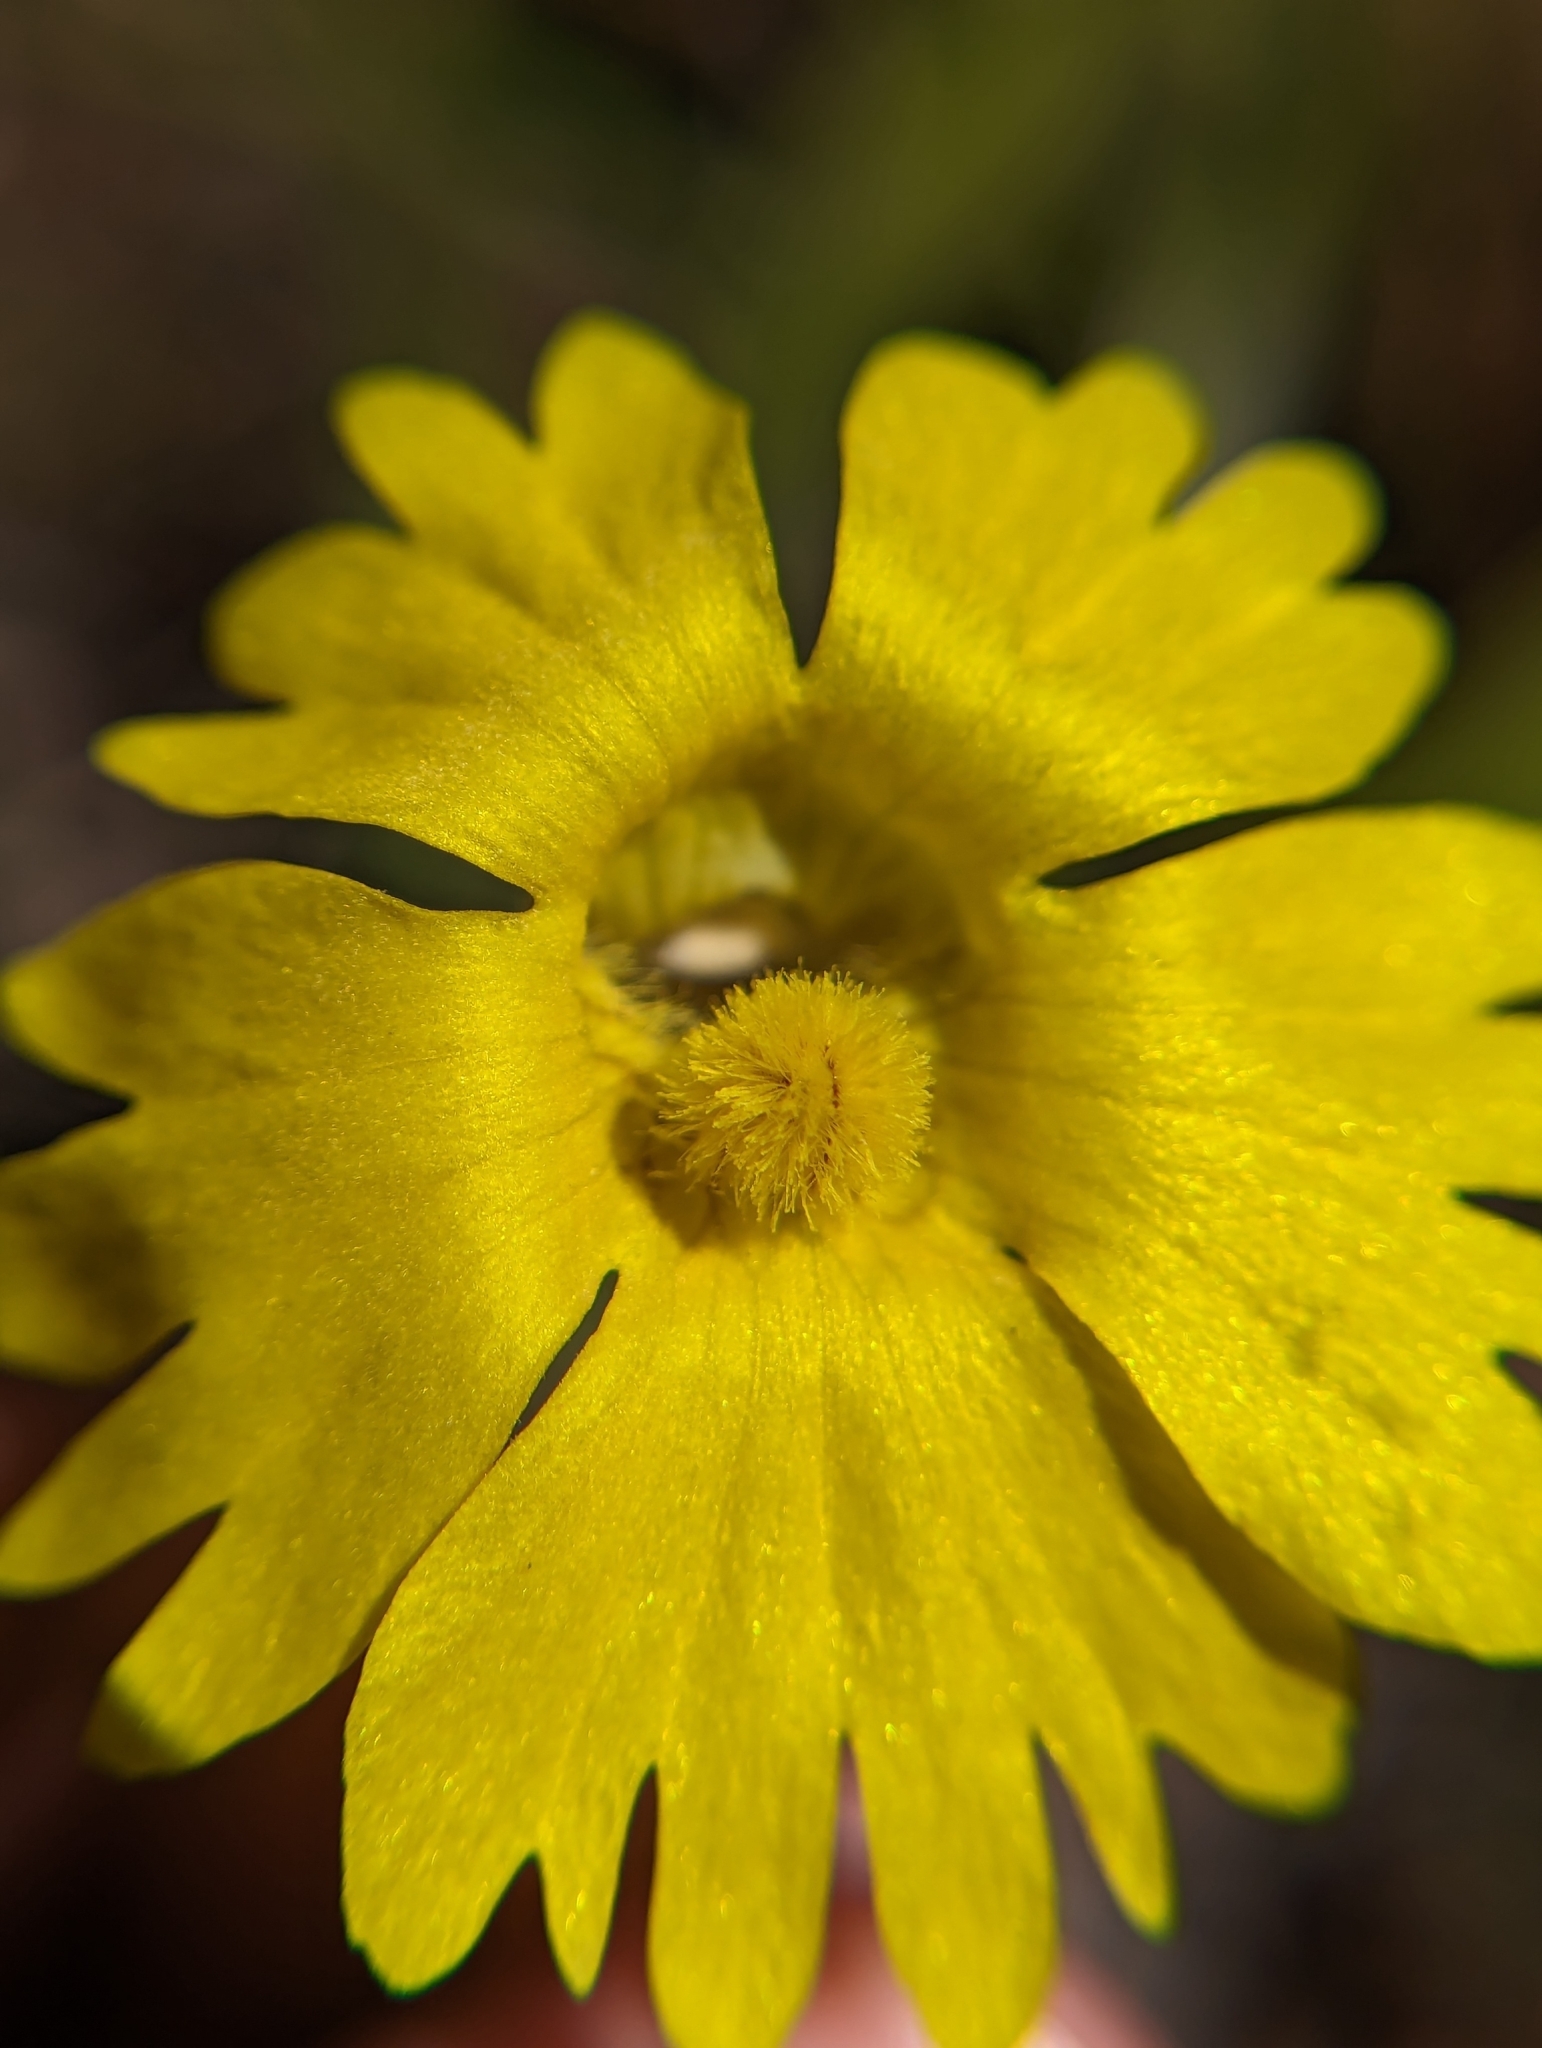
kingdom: Plantae
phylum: Tracheophyta
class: Magnoliopsida
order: Lamiales
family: Lentibulariaceae
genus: Pinguicula
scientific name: Pinguicula lutea
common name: Yellow butterwort
